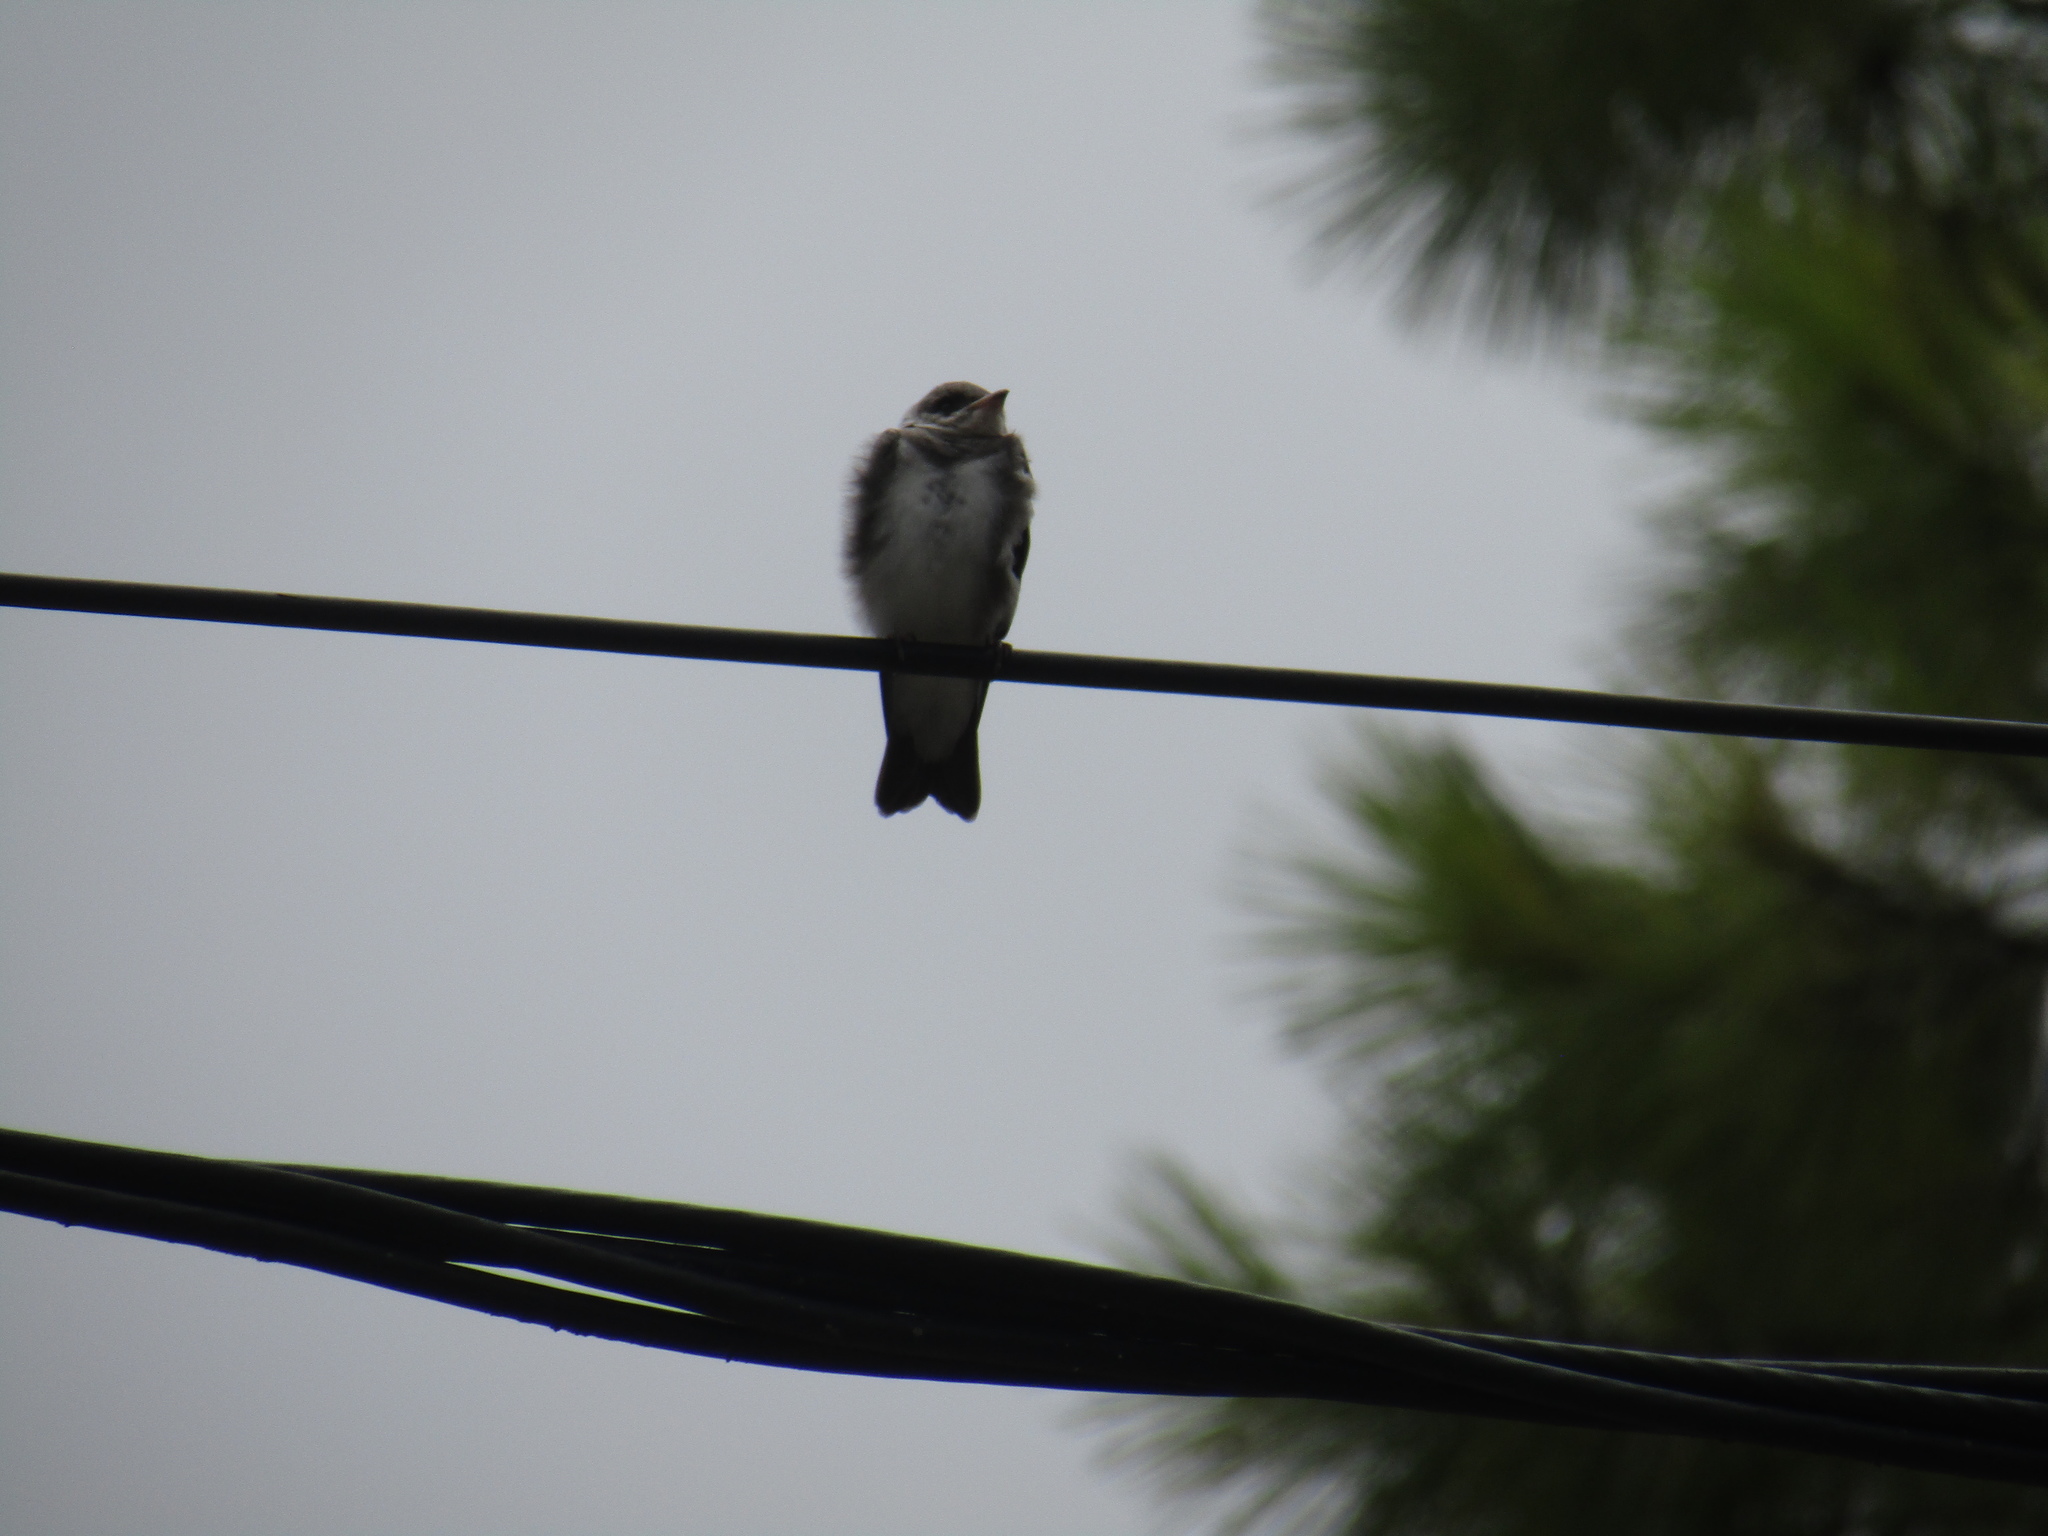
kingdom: Animalia
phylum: Chordata
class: Aves
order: Passeriformes
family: Hirundinidae
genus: Progne
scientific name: Progne tapera
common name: Brown-chested martin
